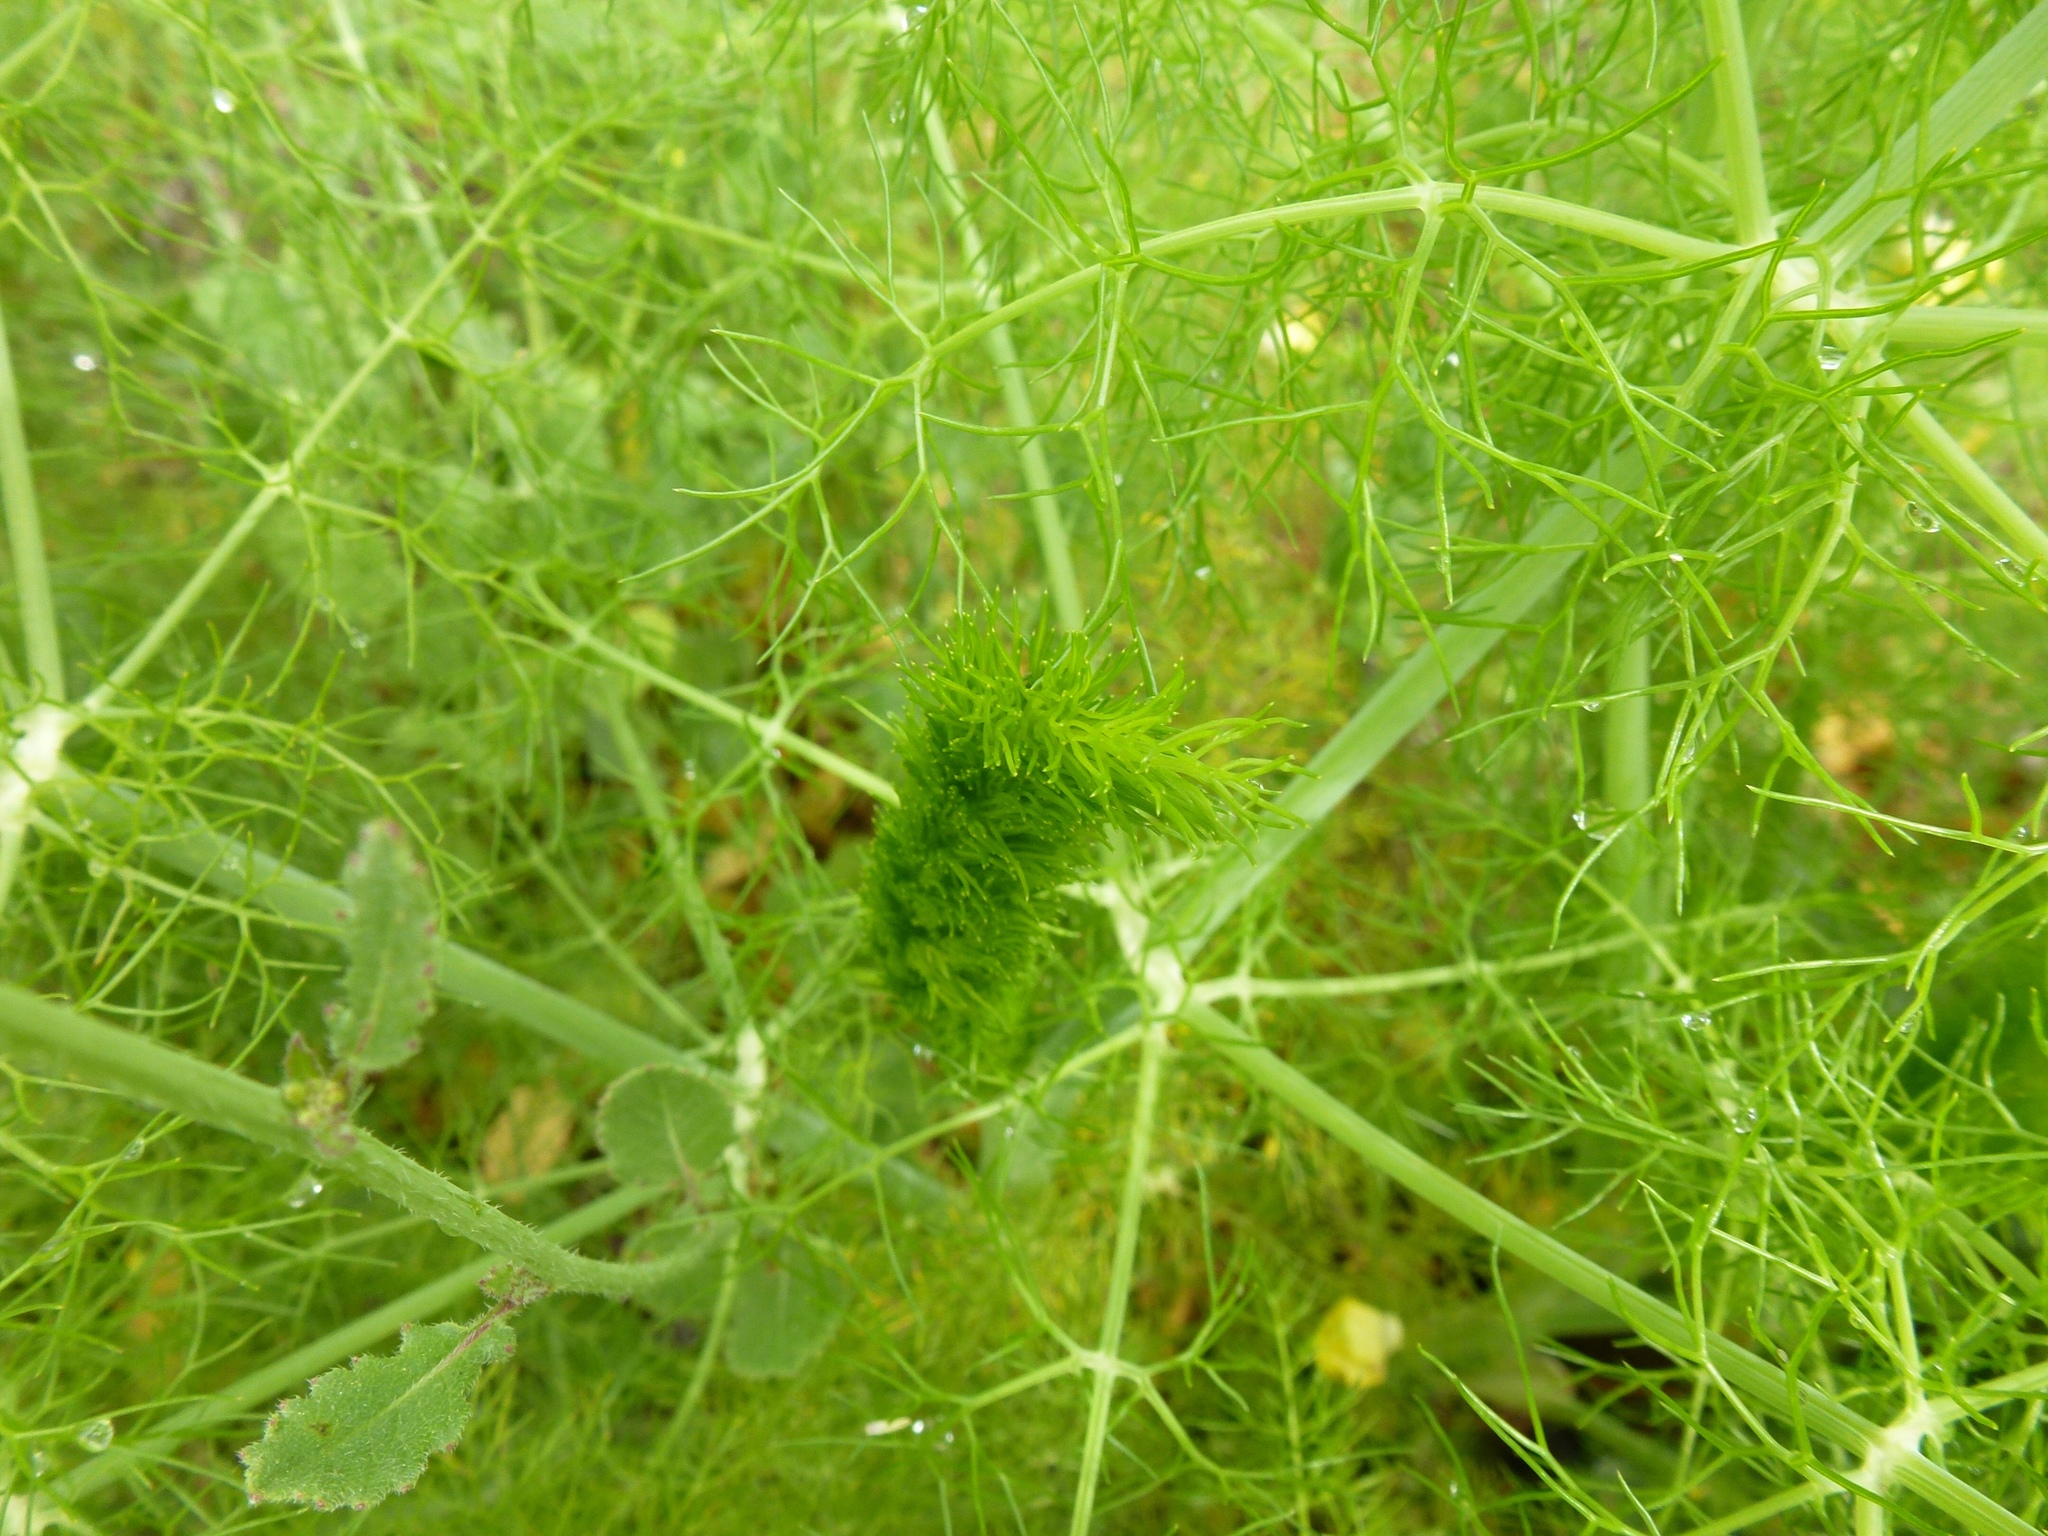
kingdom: Plantae
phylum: Tracheophyta
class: Magnoliopsida
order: Apiales
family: Apiaceae
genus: Foeniculum
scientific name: Foeniculum vulgare
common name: Fennel
